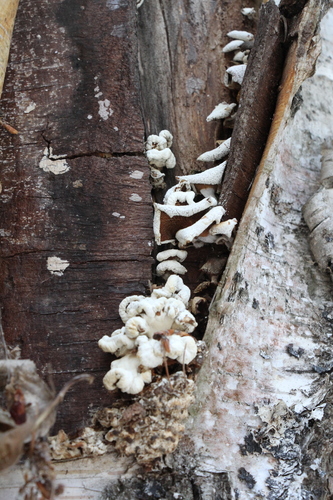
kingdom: Fungi
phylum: Basidiomycota
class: Agaricomycetes
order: Agaricales
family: Mycenaceae
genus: Panellus
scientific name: Panellus stipticus
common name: Bitter oysterling
